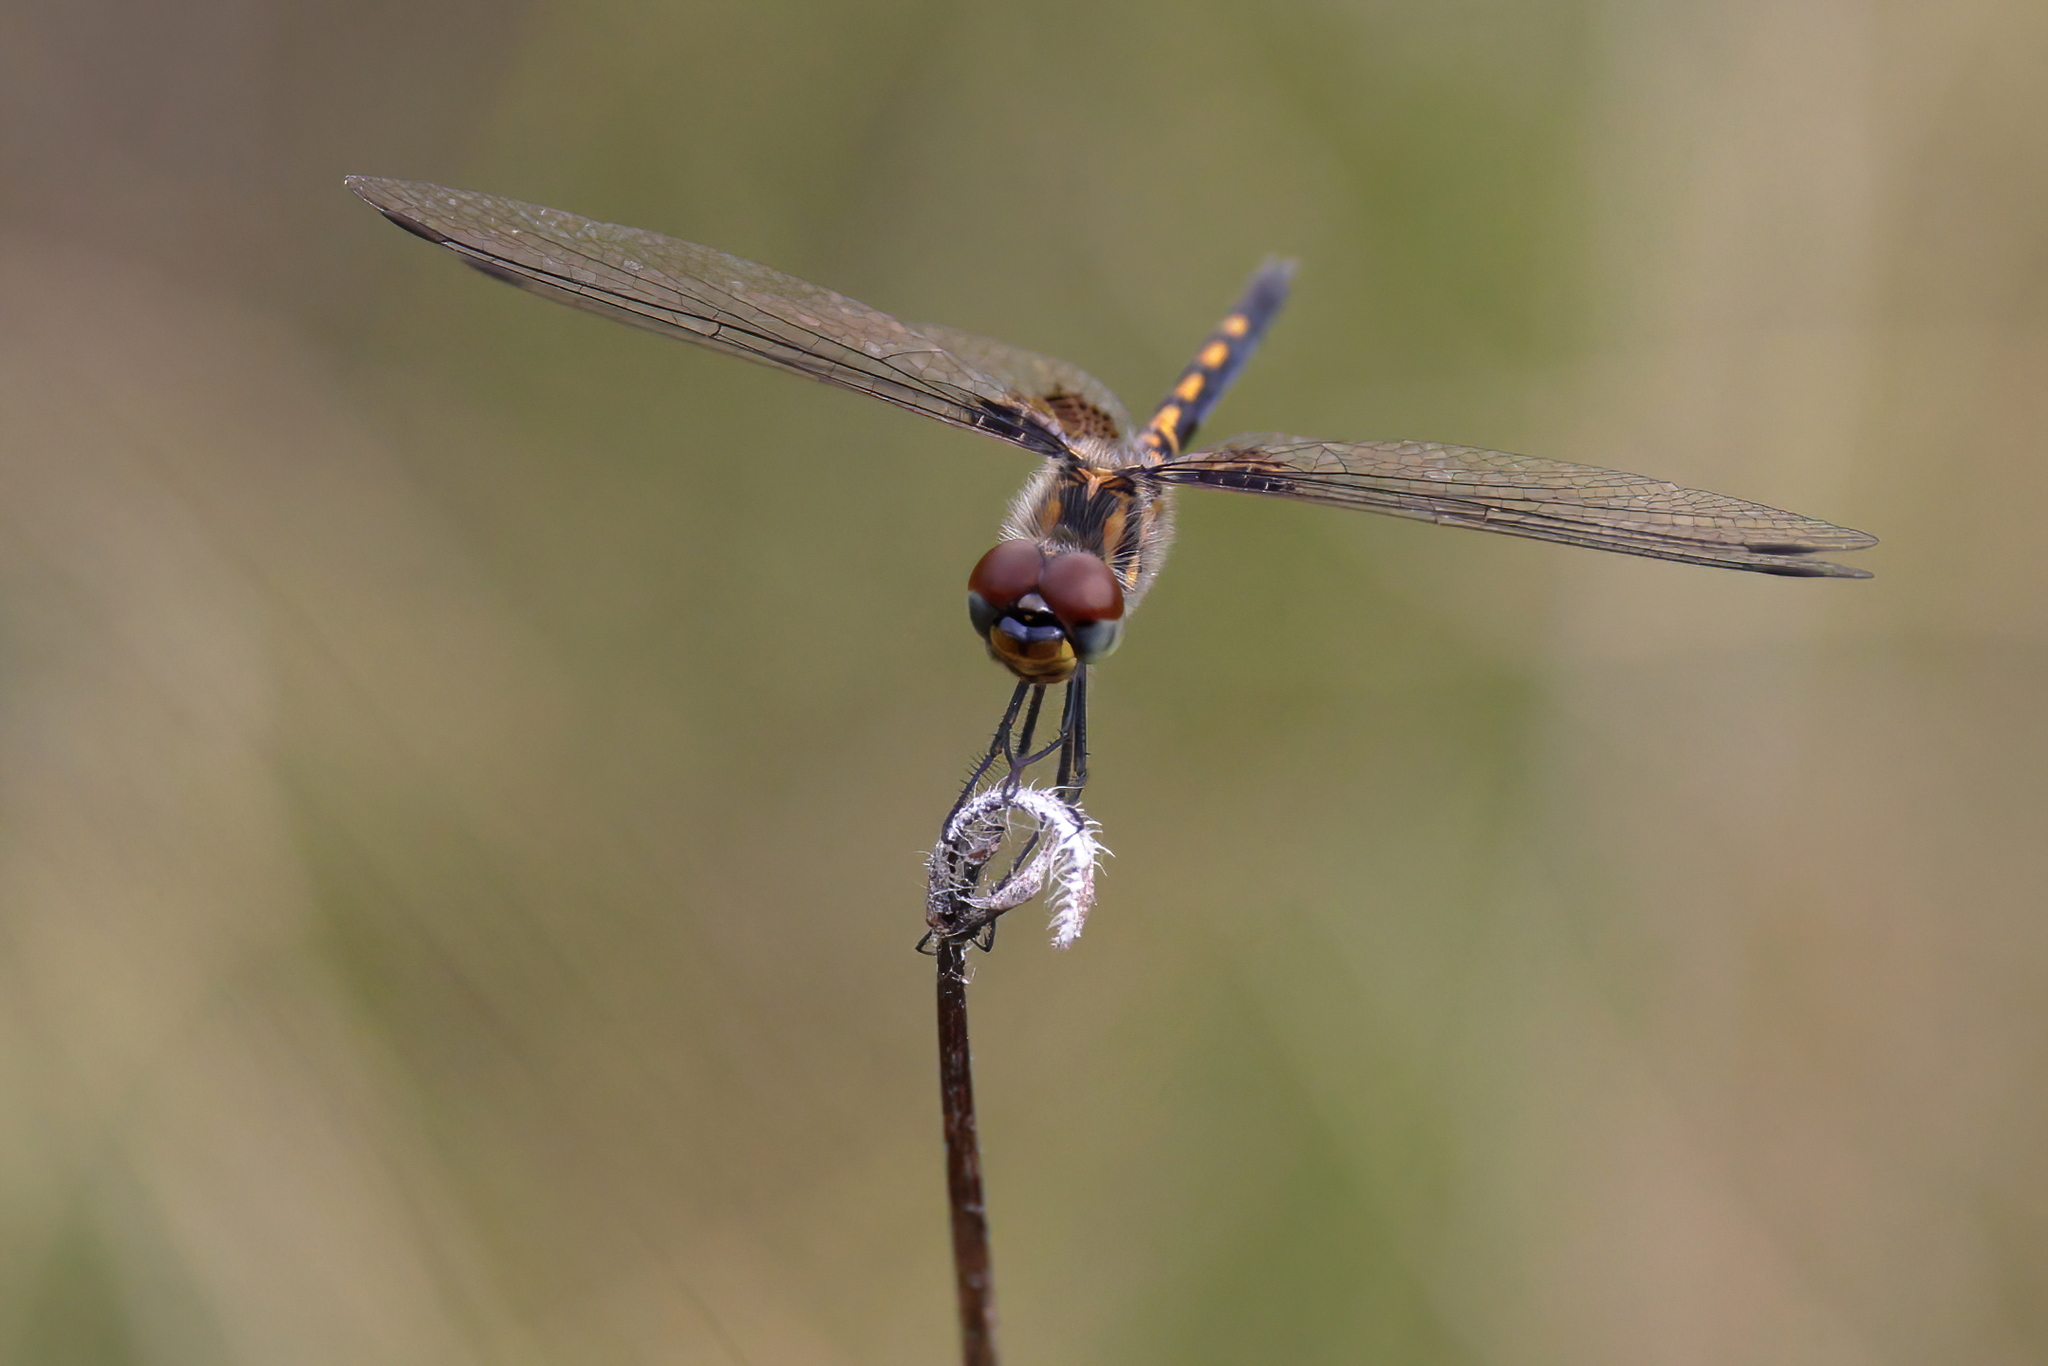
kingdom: Animalia
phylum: Arthropoda
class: Insecta
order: Odonata
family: Libellulidae
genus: Celithemis
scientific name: Celithemis ornata
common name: Ornate pennant
